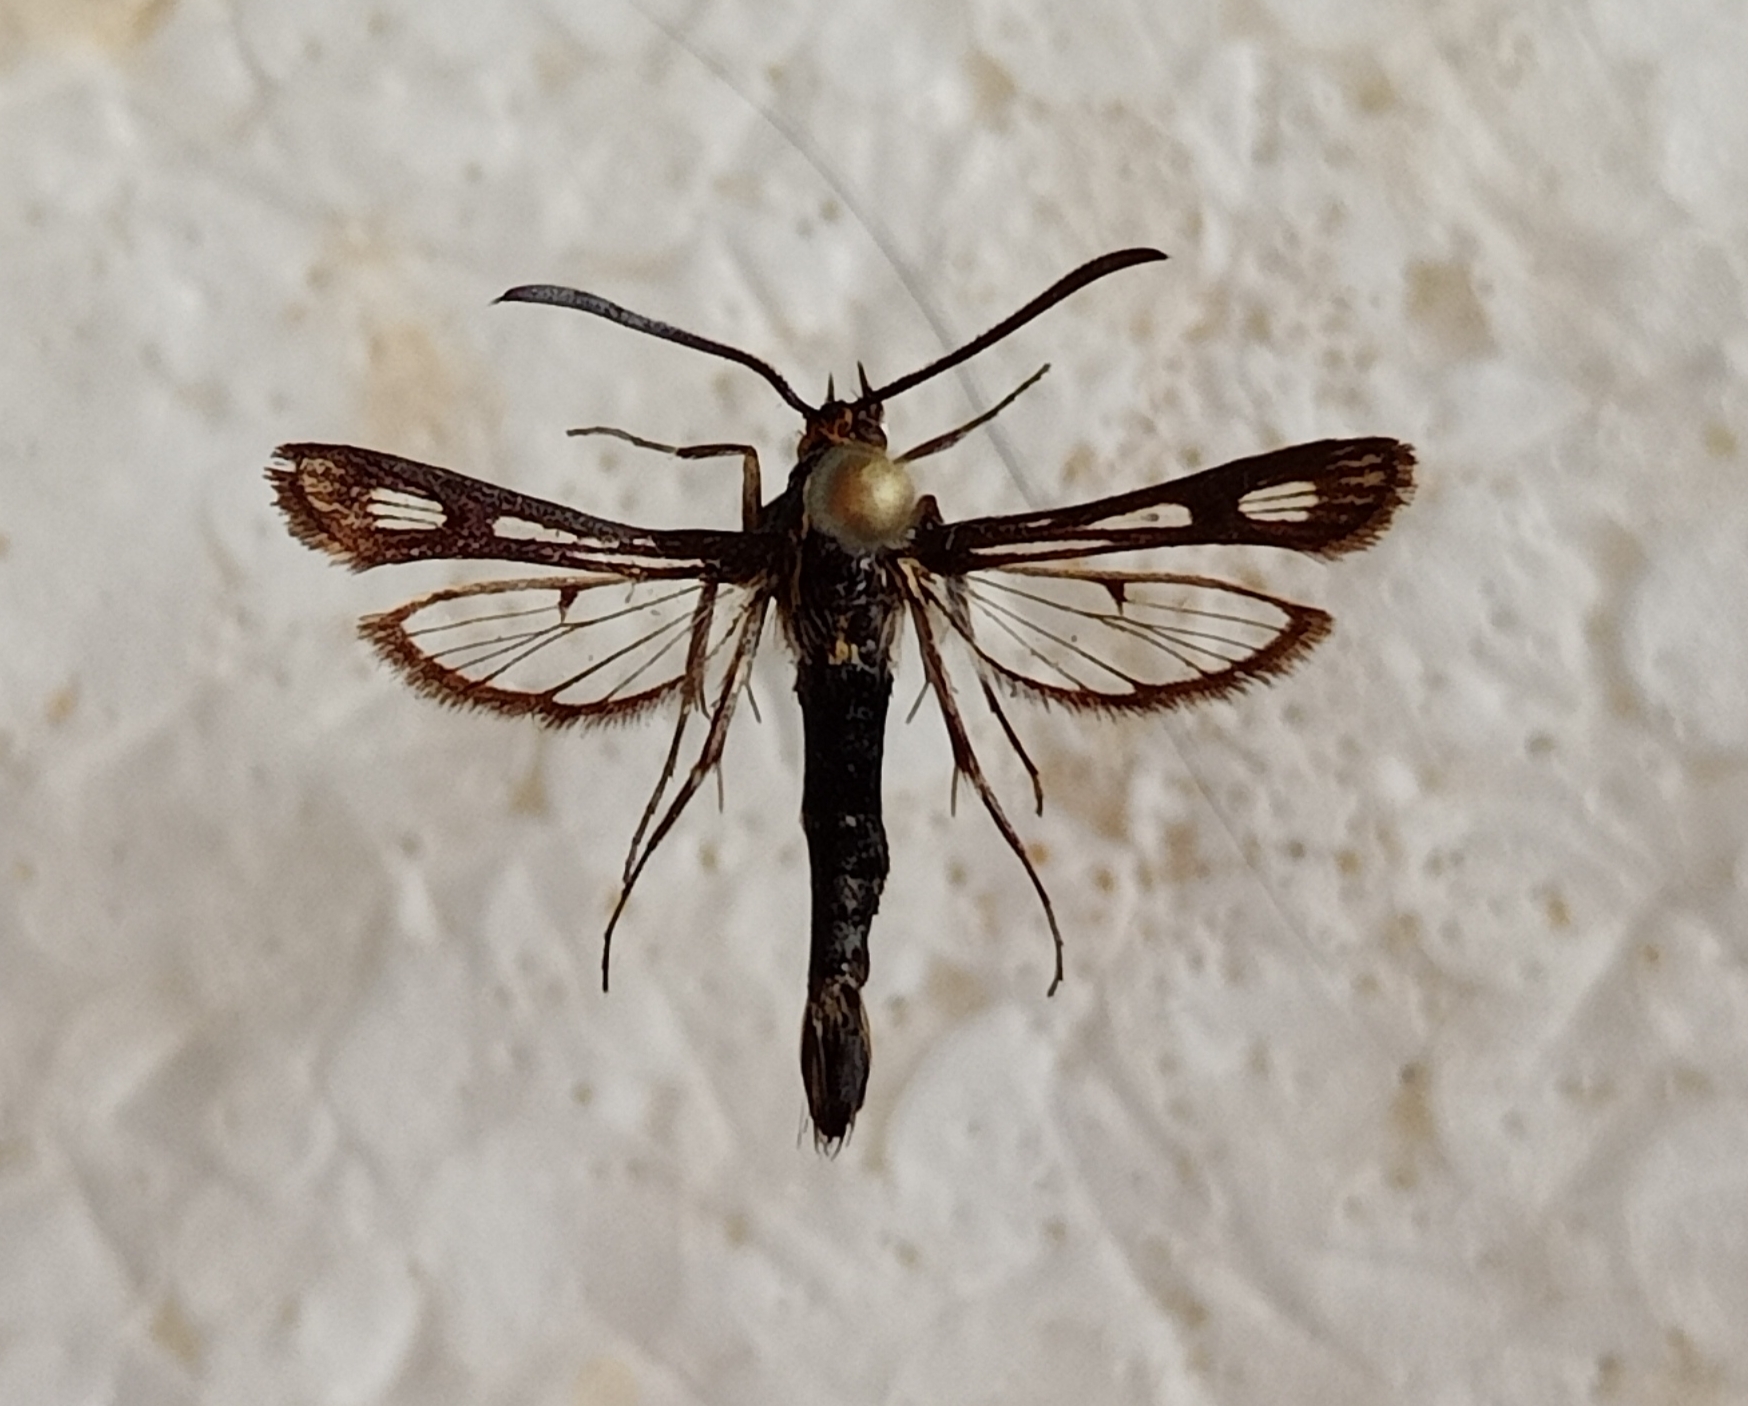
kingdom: Animalia
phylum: Arthropoda
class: Insecta
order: Lepidoptera
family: Sesiidae
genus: Chamaesphecia
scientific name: Chamaesphecia aerifrons
